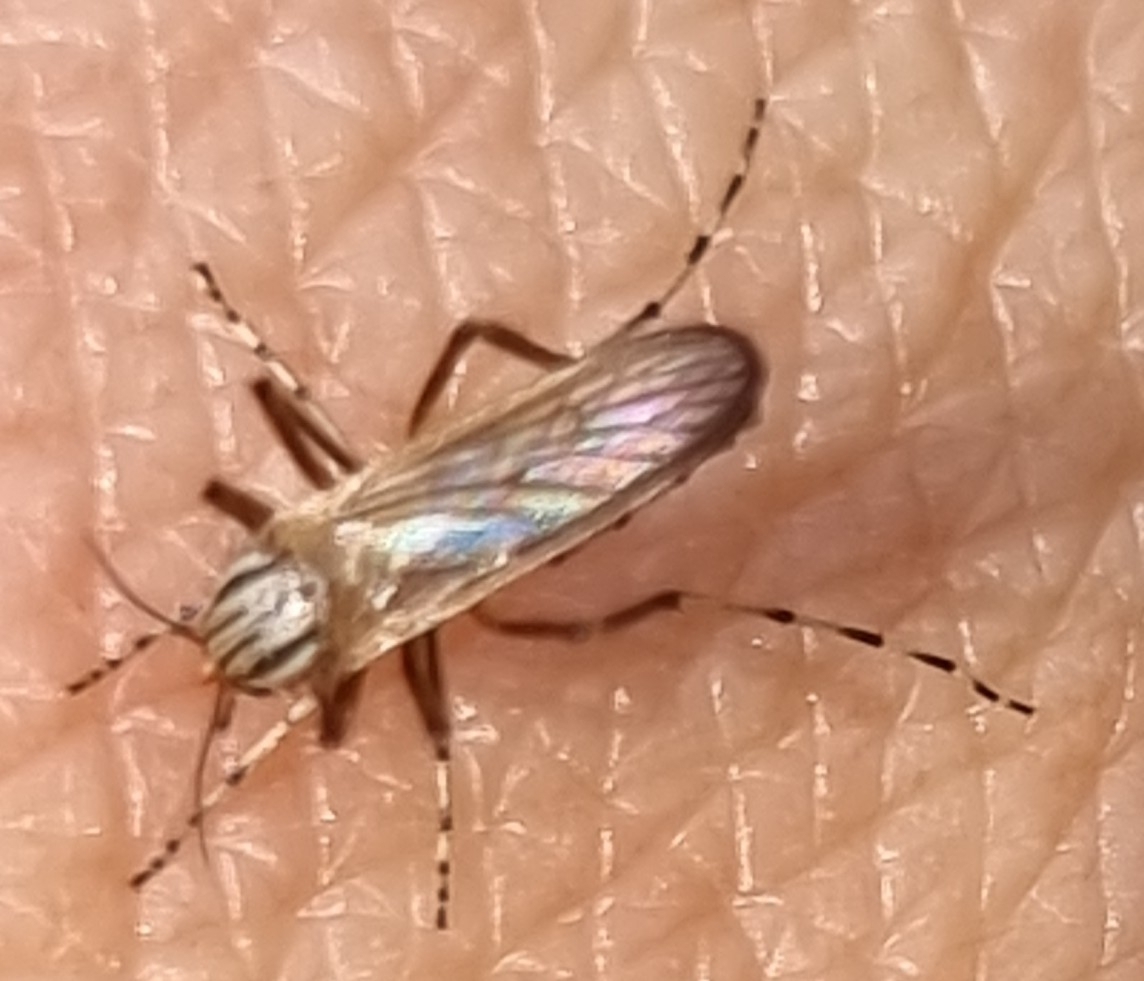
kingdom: Animalia
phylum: Arthropoda
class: Insecta
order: Diptera
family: Culicidae
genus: Aedes
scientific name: Aedes vittiger
